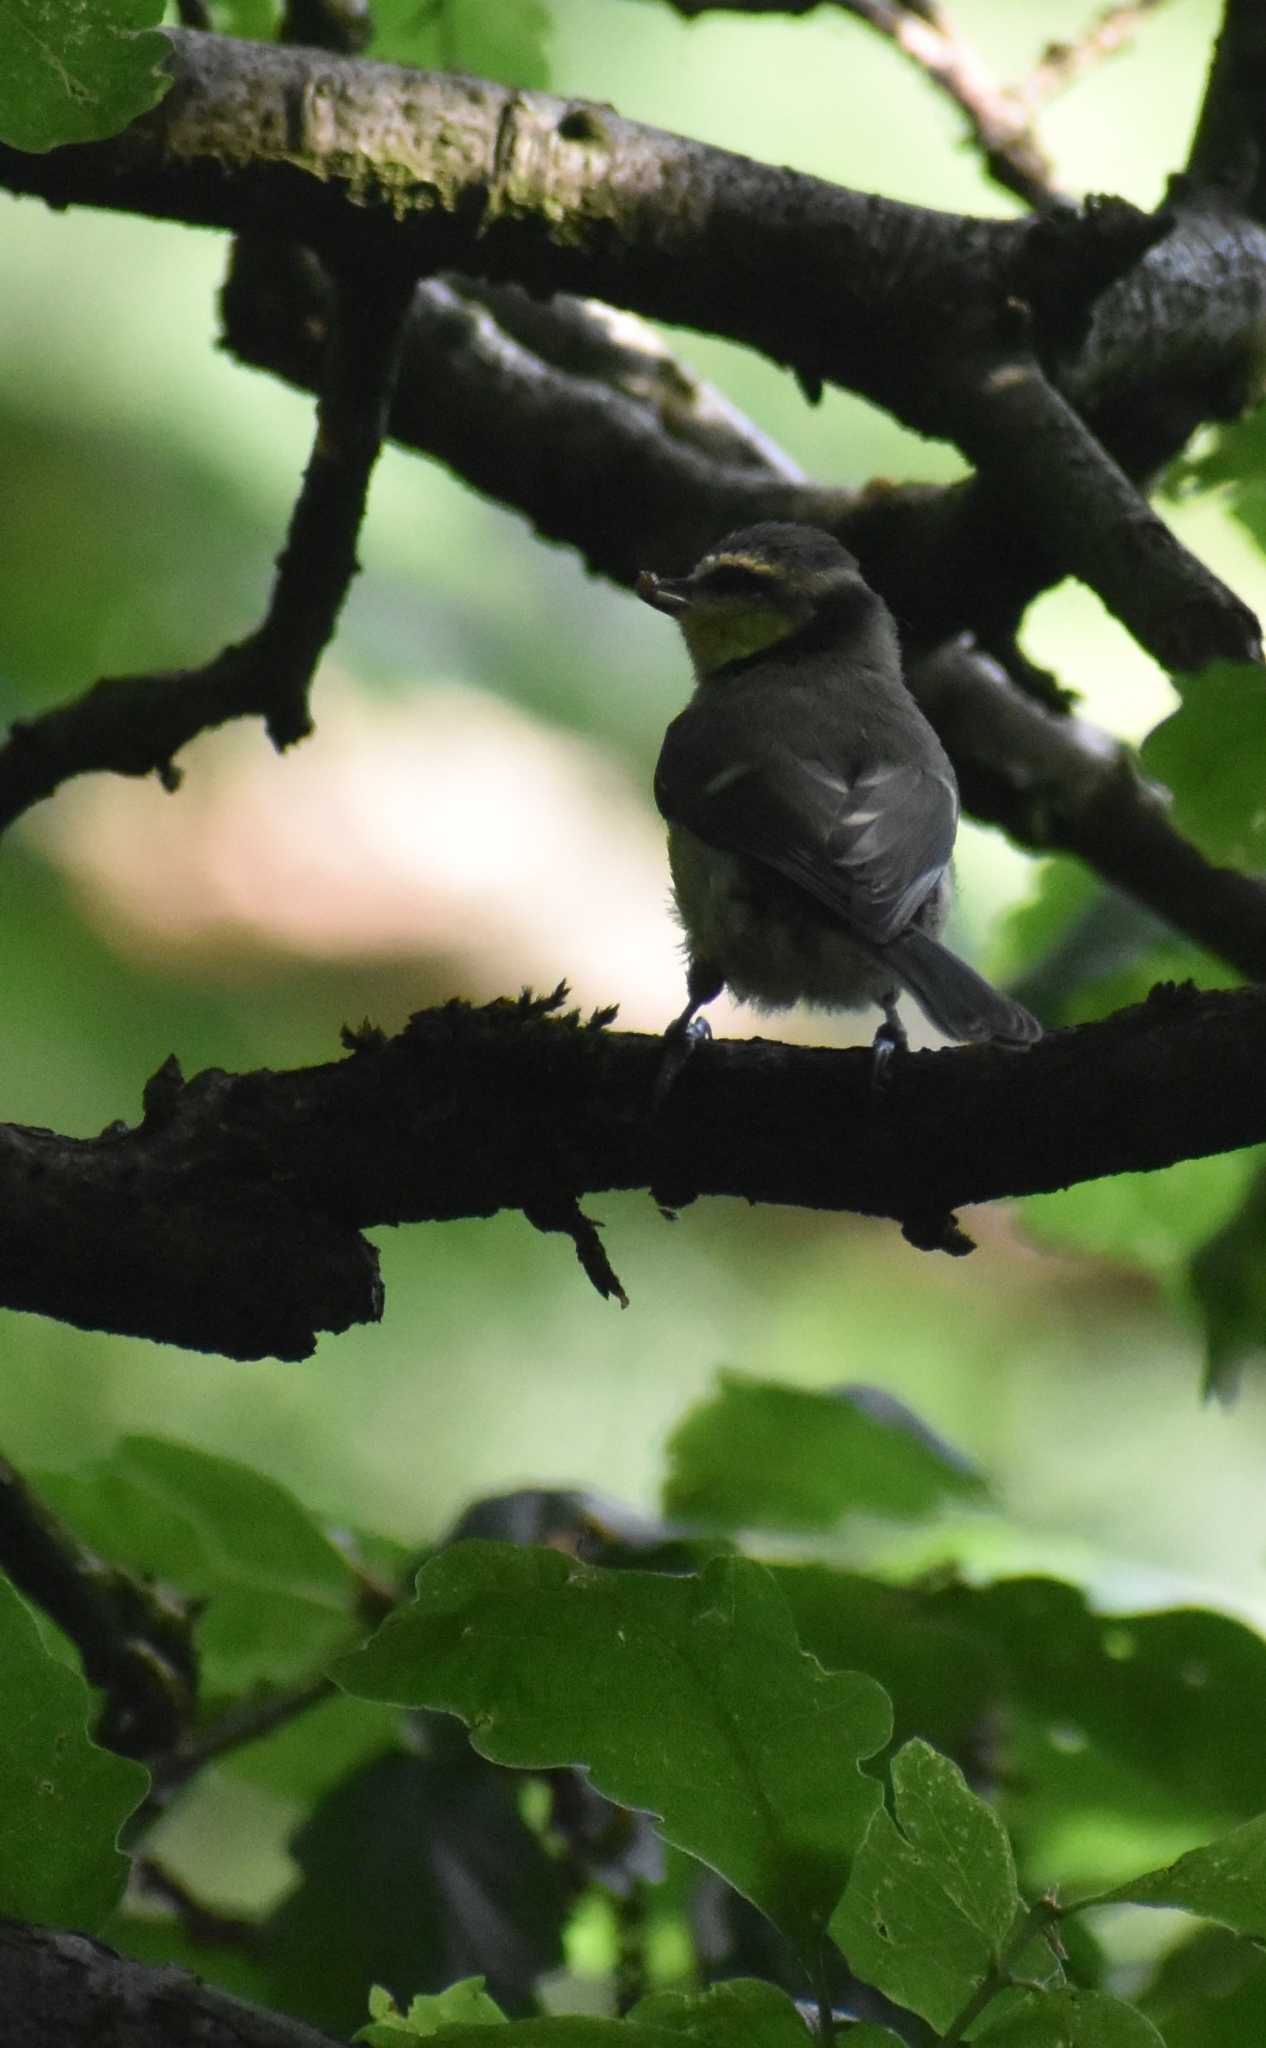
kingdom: Animalia
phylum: Chordata
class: Aves
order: Passeriformes
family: Paridae
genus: Cyanistes
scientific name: Cyanistes caeruleus
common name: Eurasian blue tit
